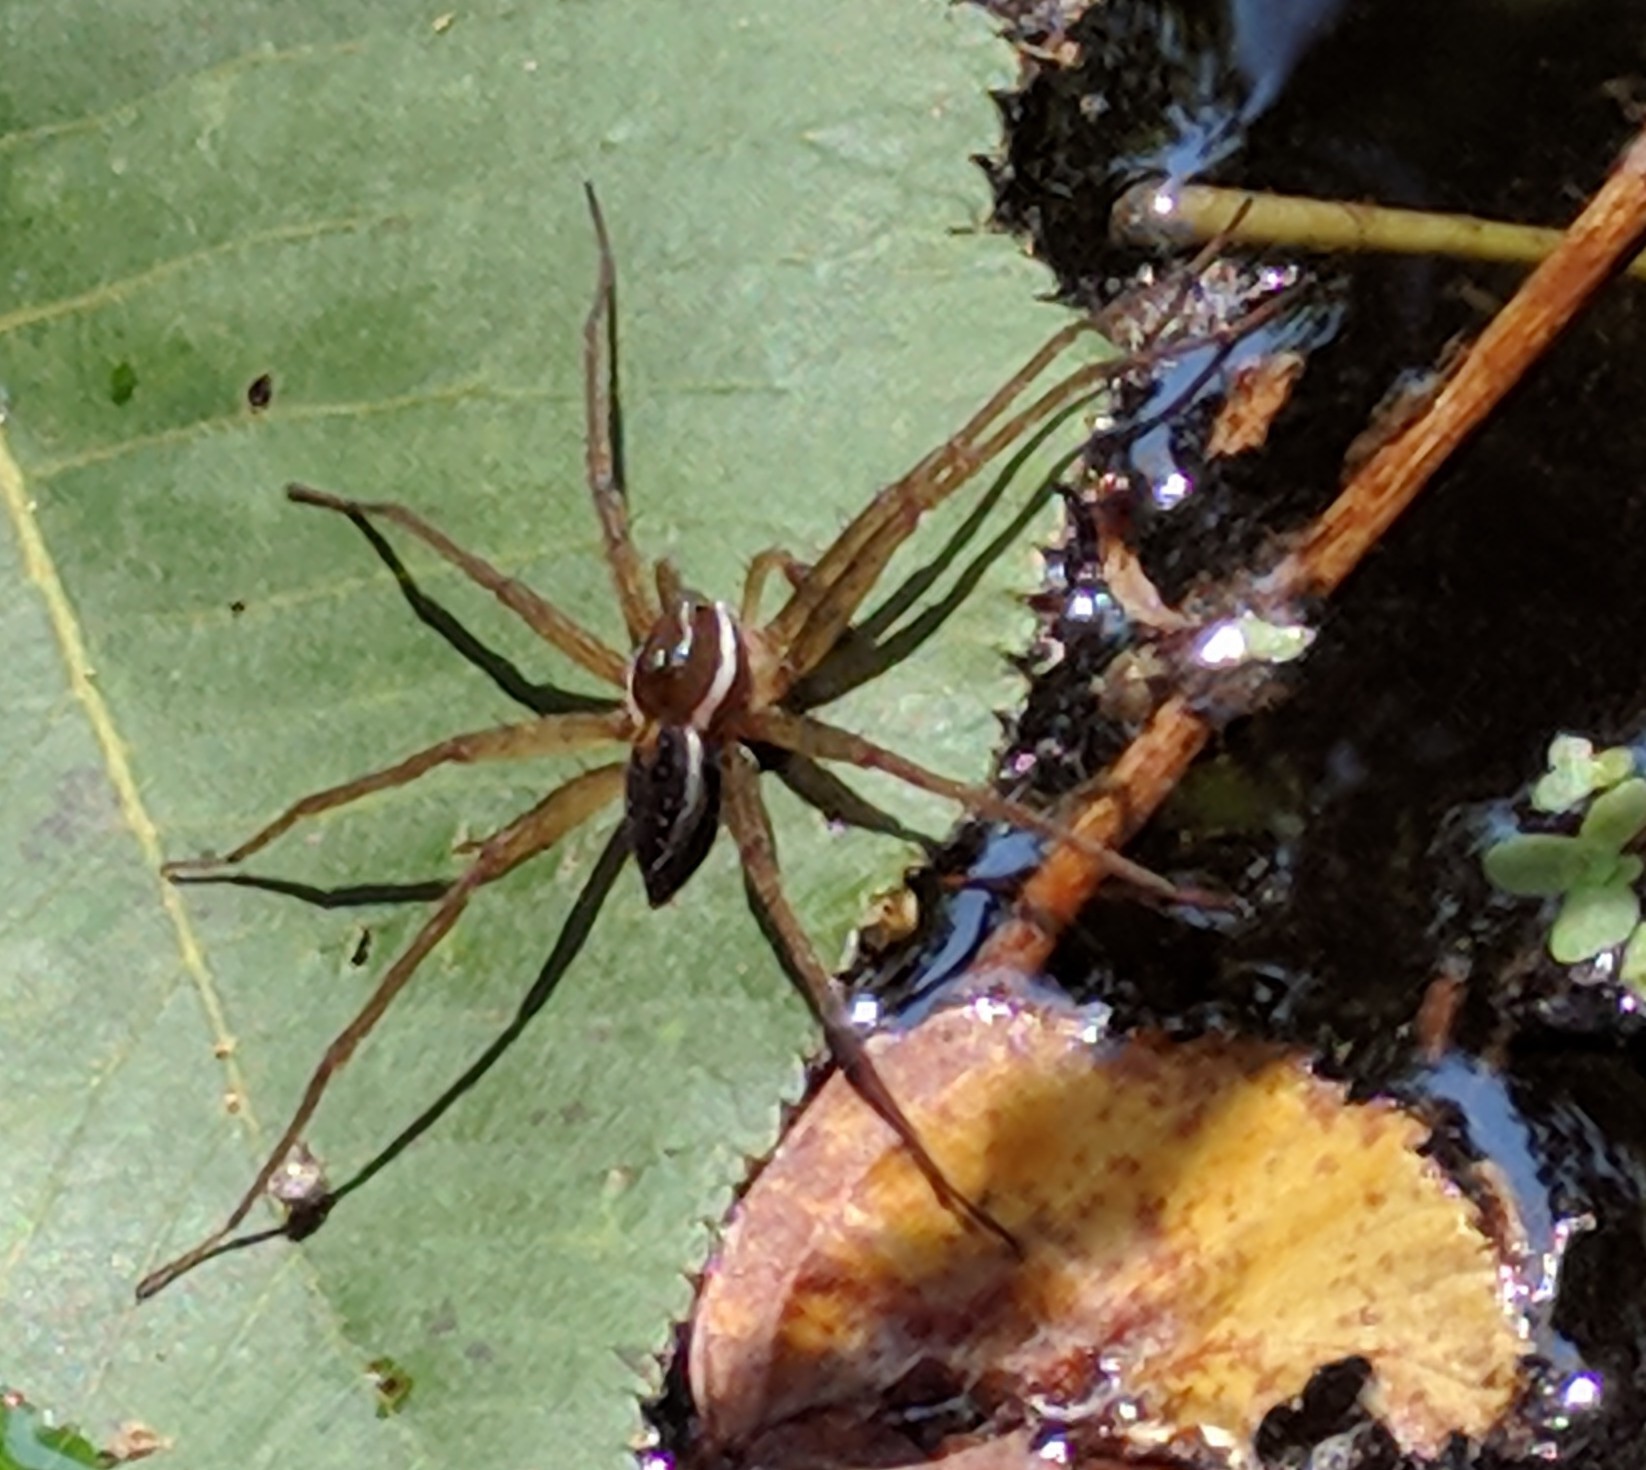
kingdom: Animalia
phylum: Arthropoda
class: Arachnida
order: Araneae
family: Pisauridae
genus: Dolomedes
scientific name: Dolomedes triton
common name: Six-spotted fishing spider
